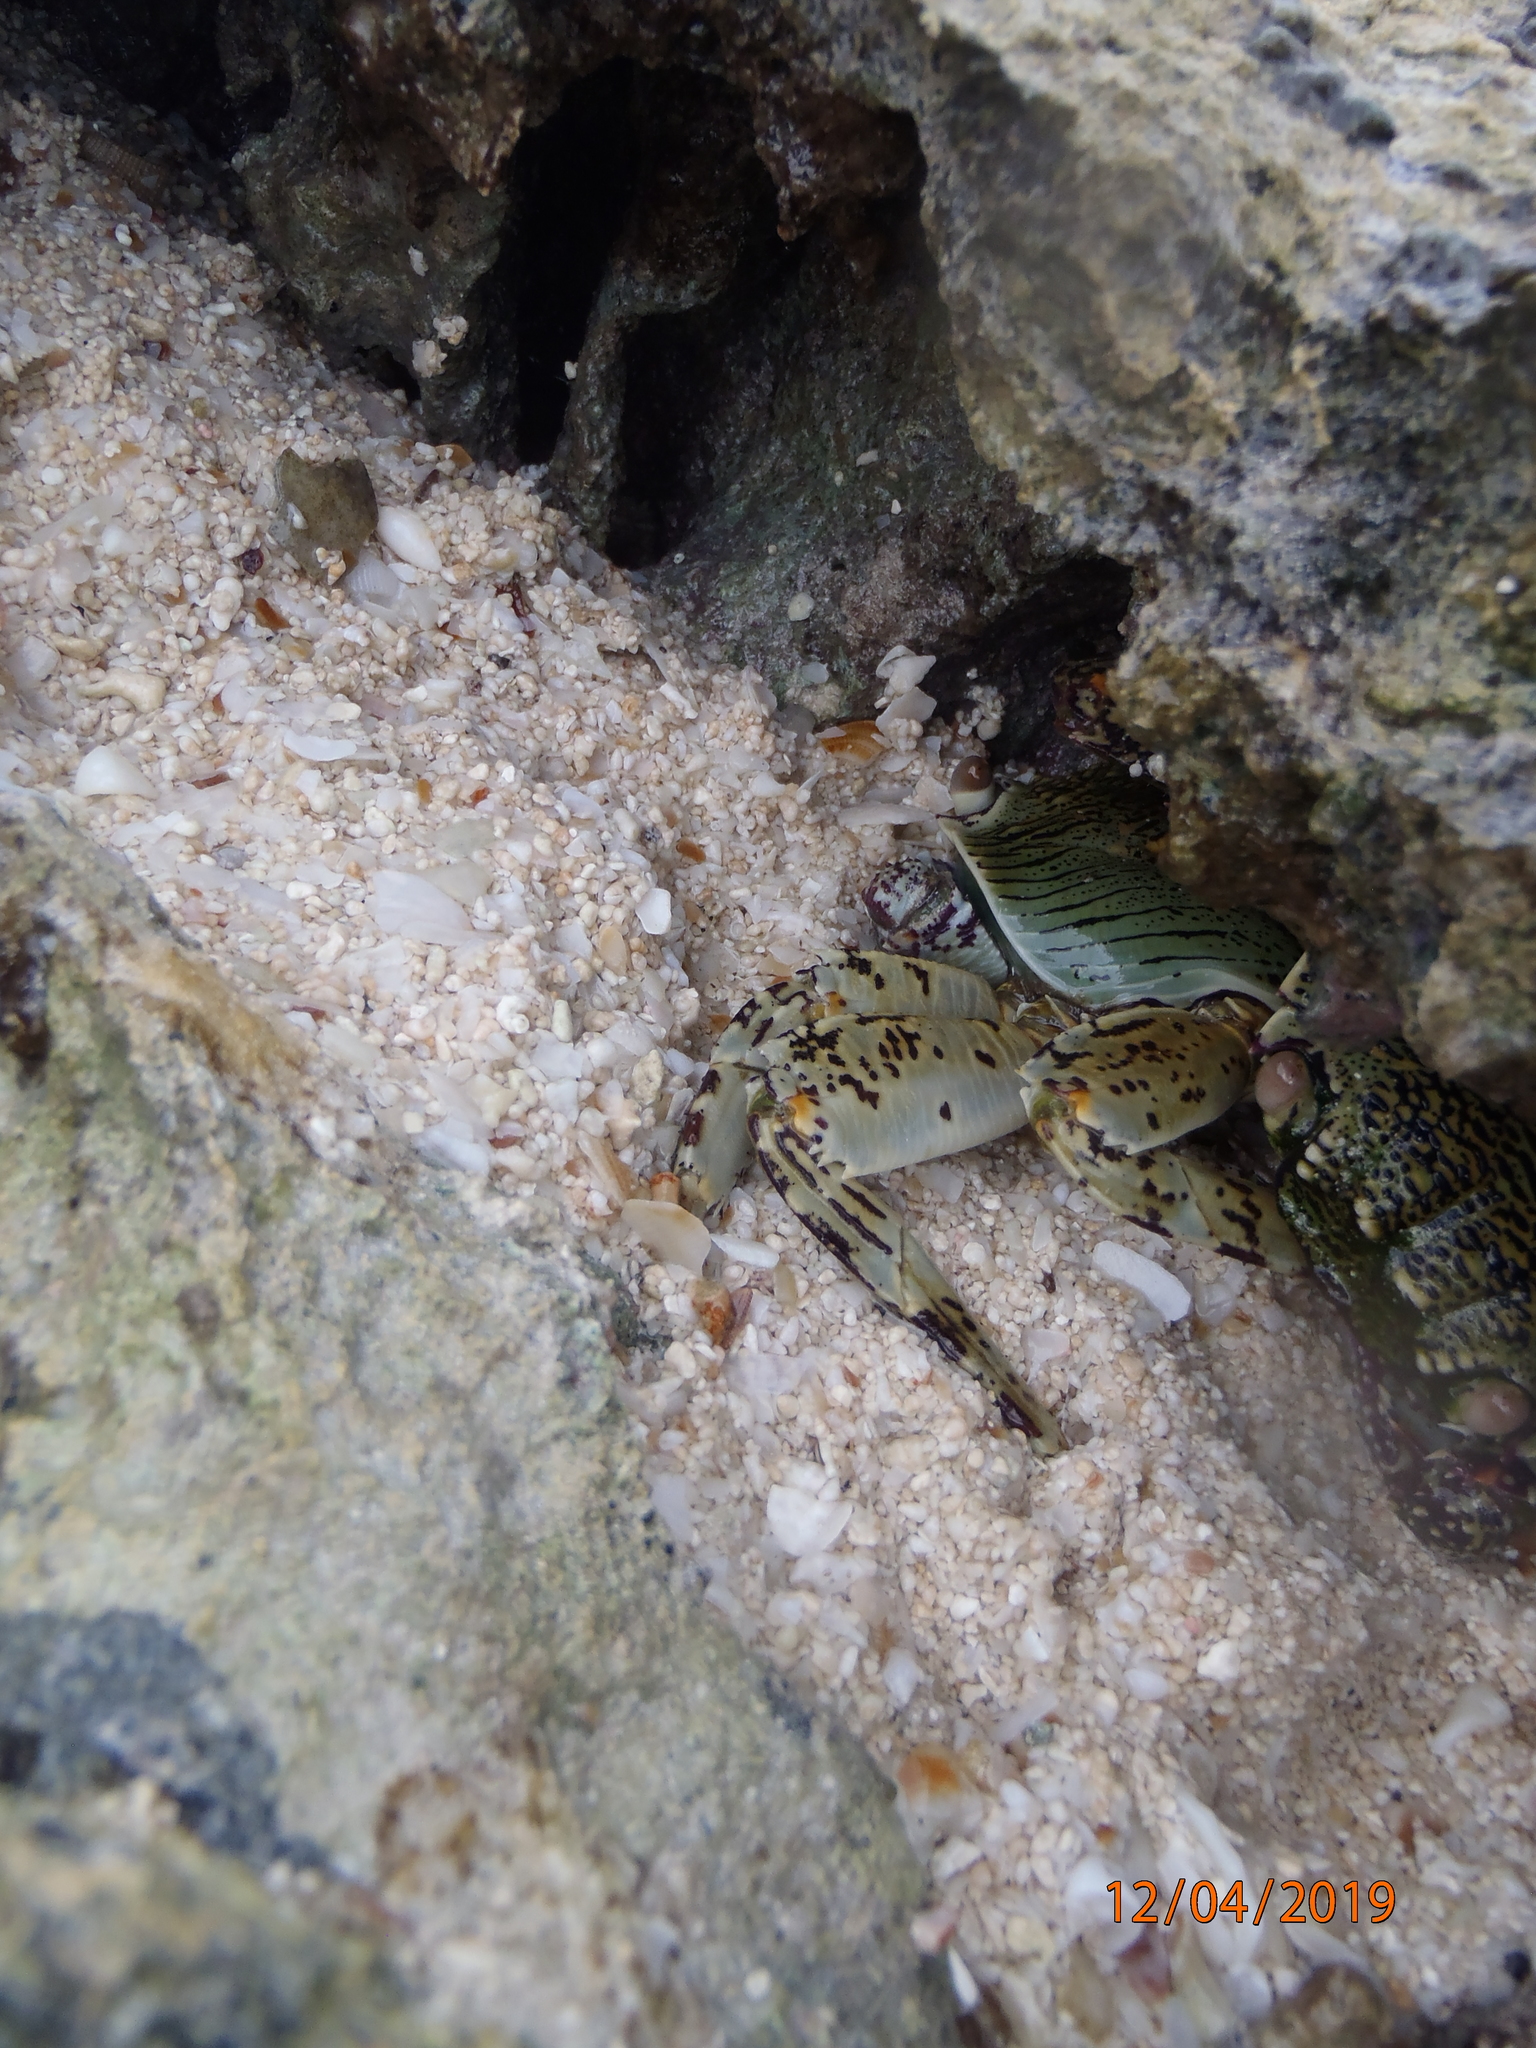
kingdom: Animalia
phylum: Arthropoda
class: Malacostraca
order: Decapoda
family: Grapsidae
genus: Grapsus
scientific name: Grapsus albolineatus
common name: Mottled lightfoot crab
